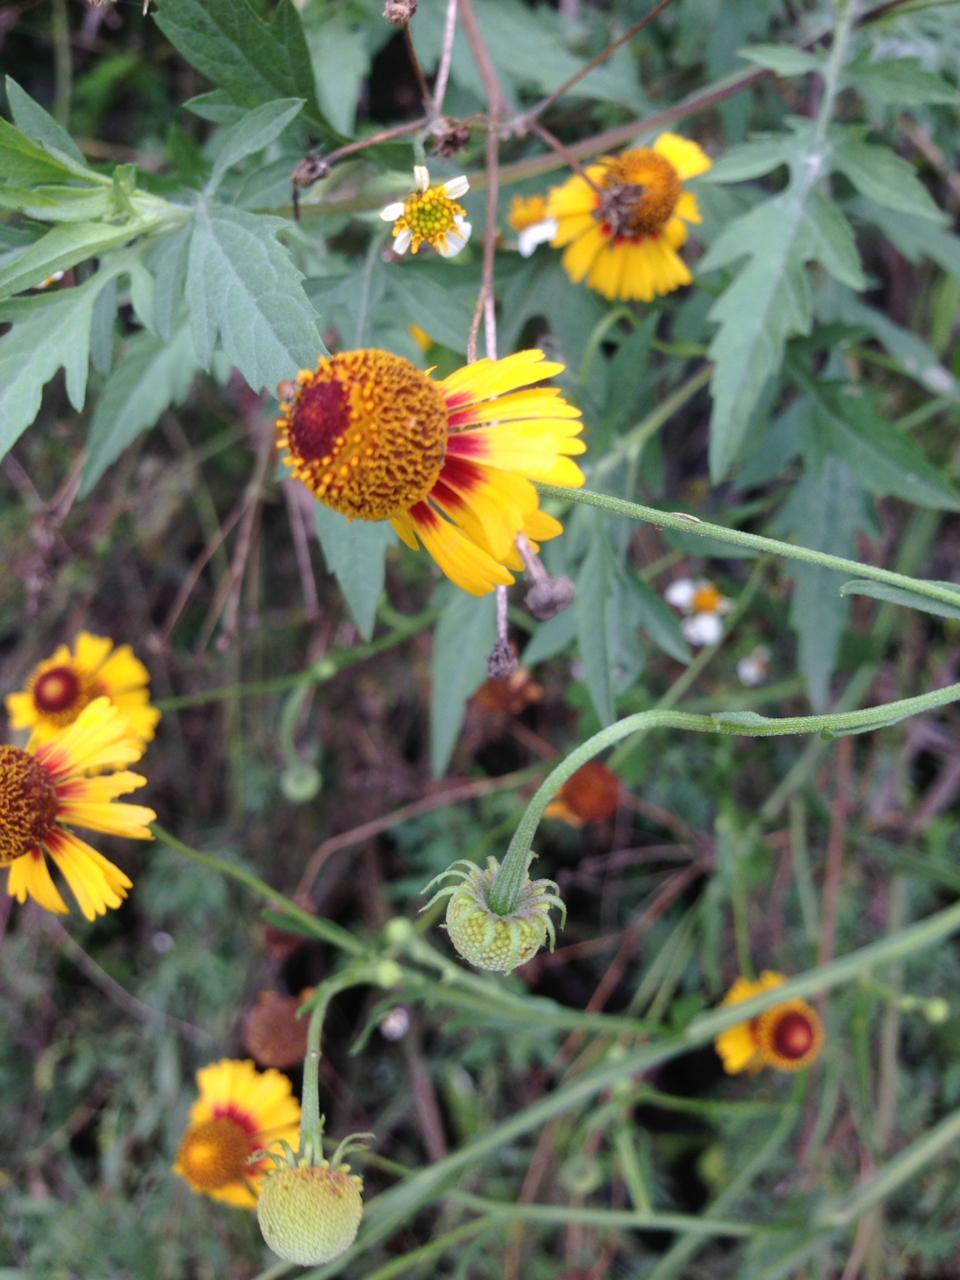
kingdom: Plantae
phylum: Tracheophyta
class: Magnoliopsida
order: Asterales
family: Asteraceae
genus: Helenium
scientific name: Helenium amphibolum
